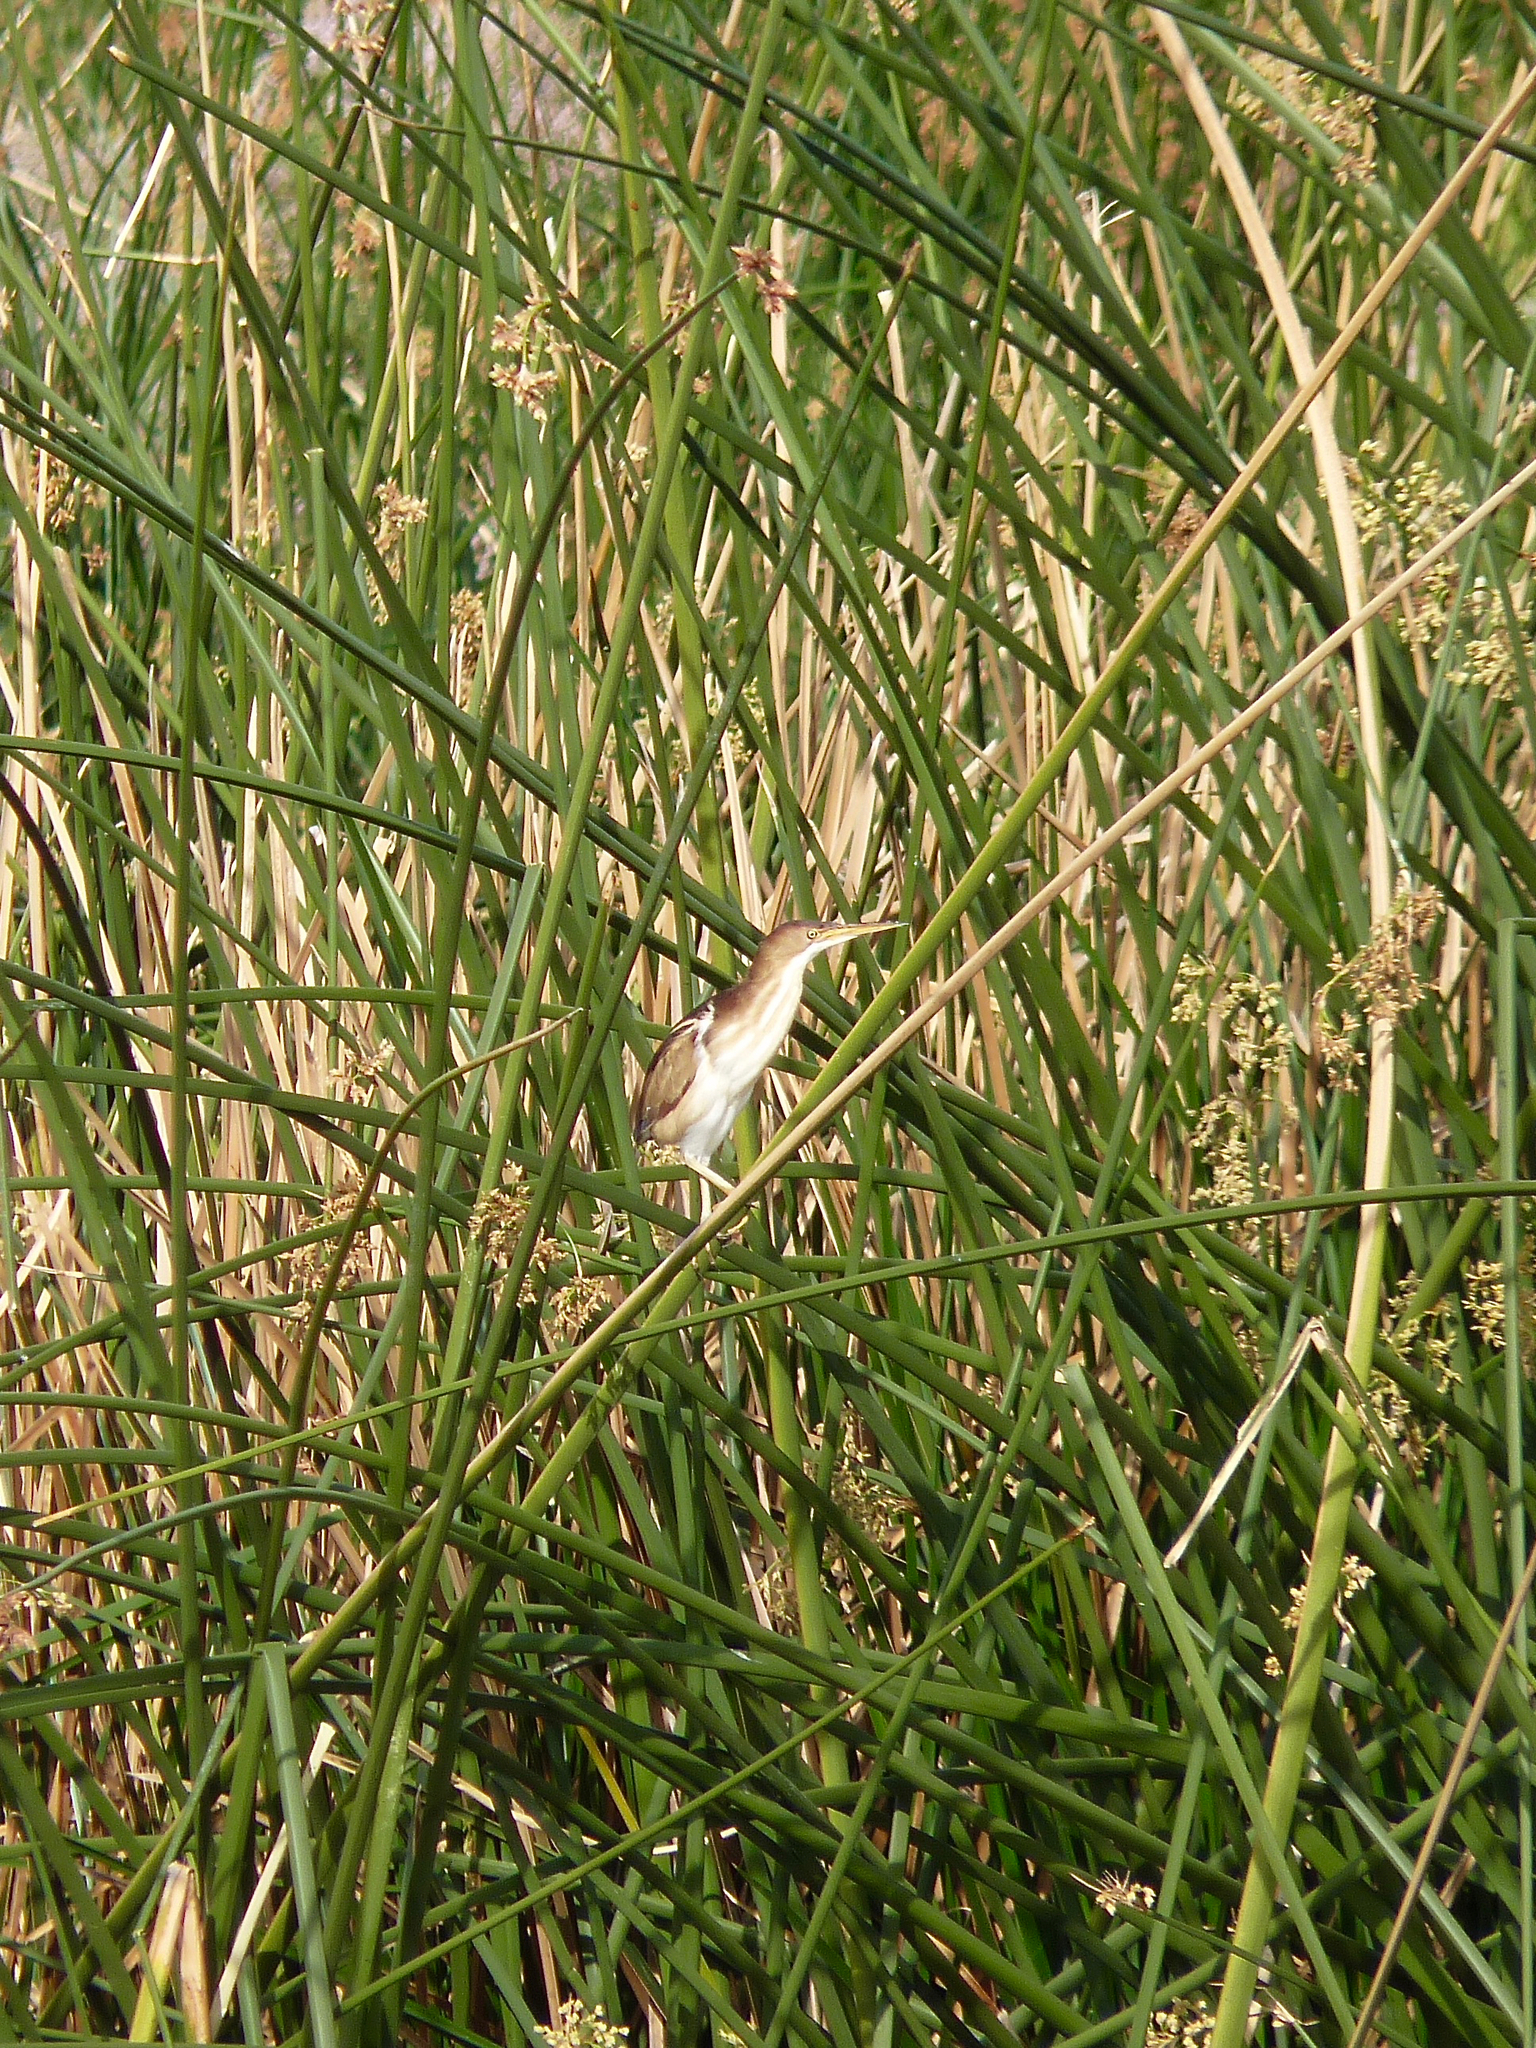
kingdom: Animalia
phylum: Chordata
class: Aves
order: Pelecaniformes
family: Ardeidae
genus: Ixobrychus
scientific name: Ixobrychus exilis
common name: Least bittern
